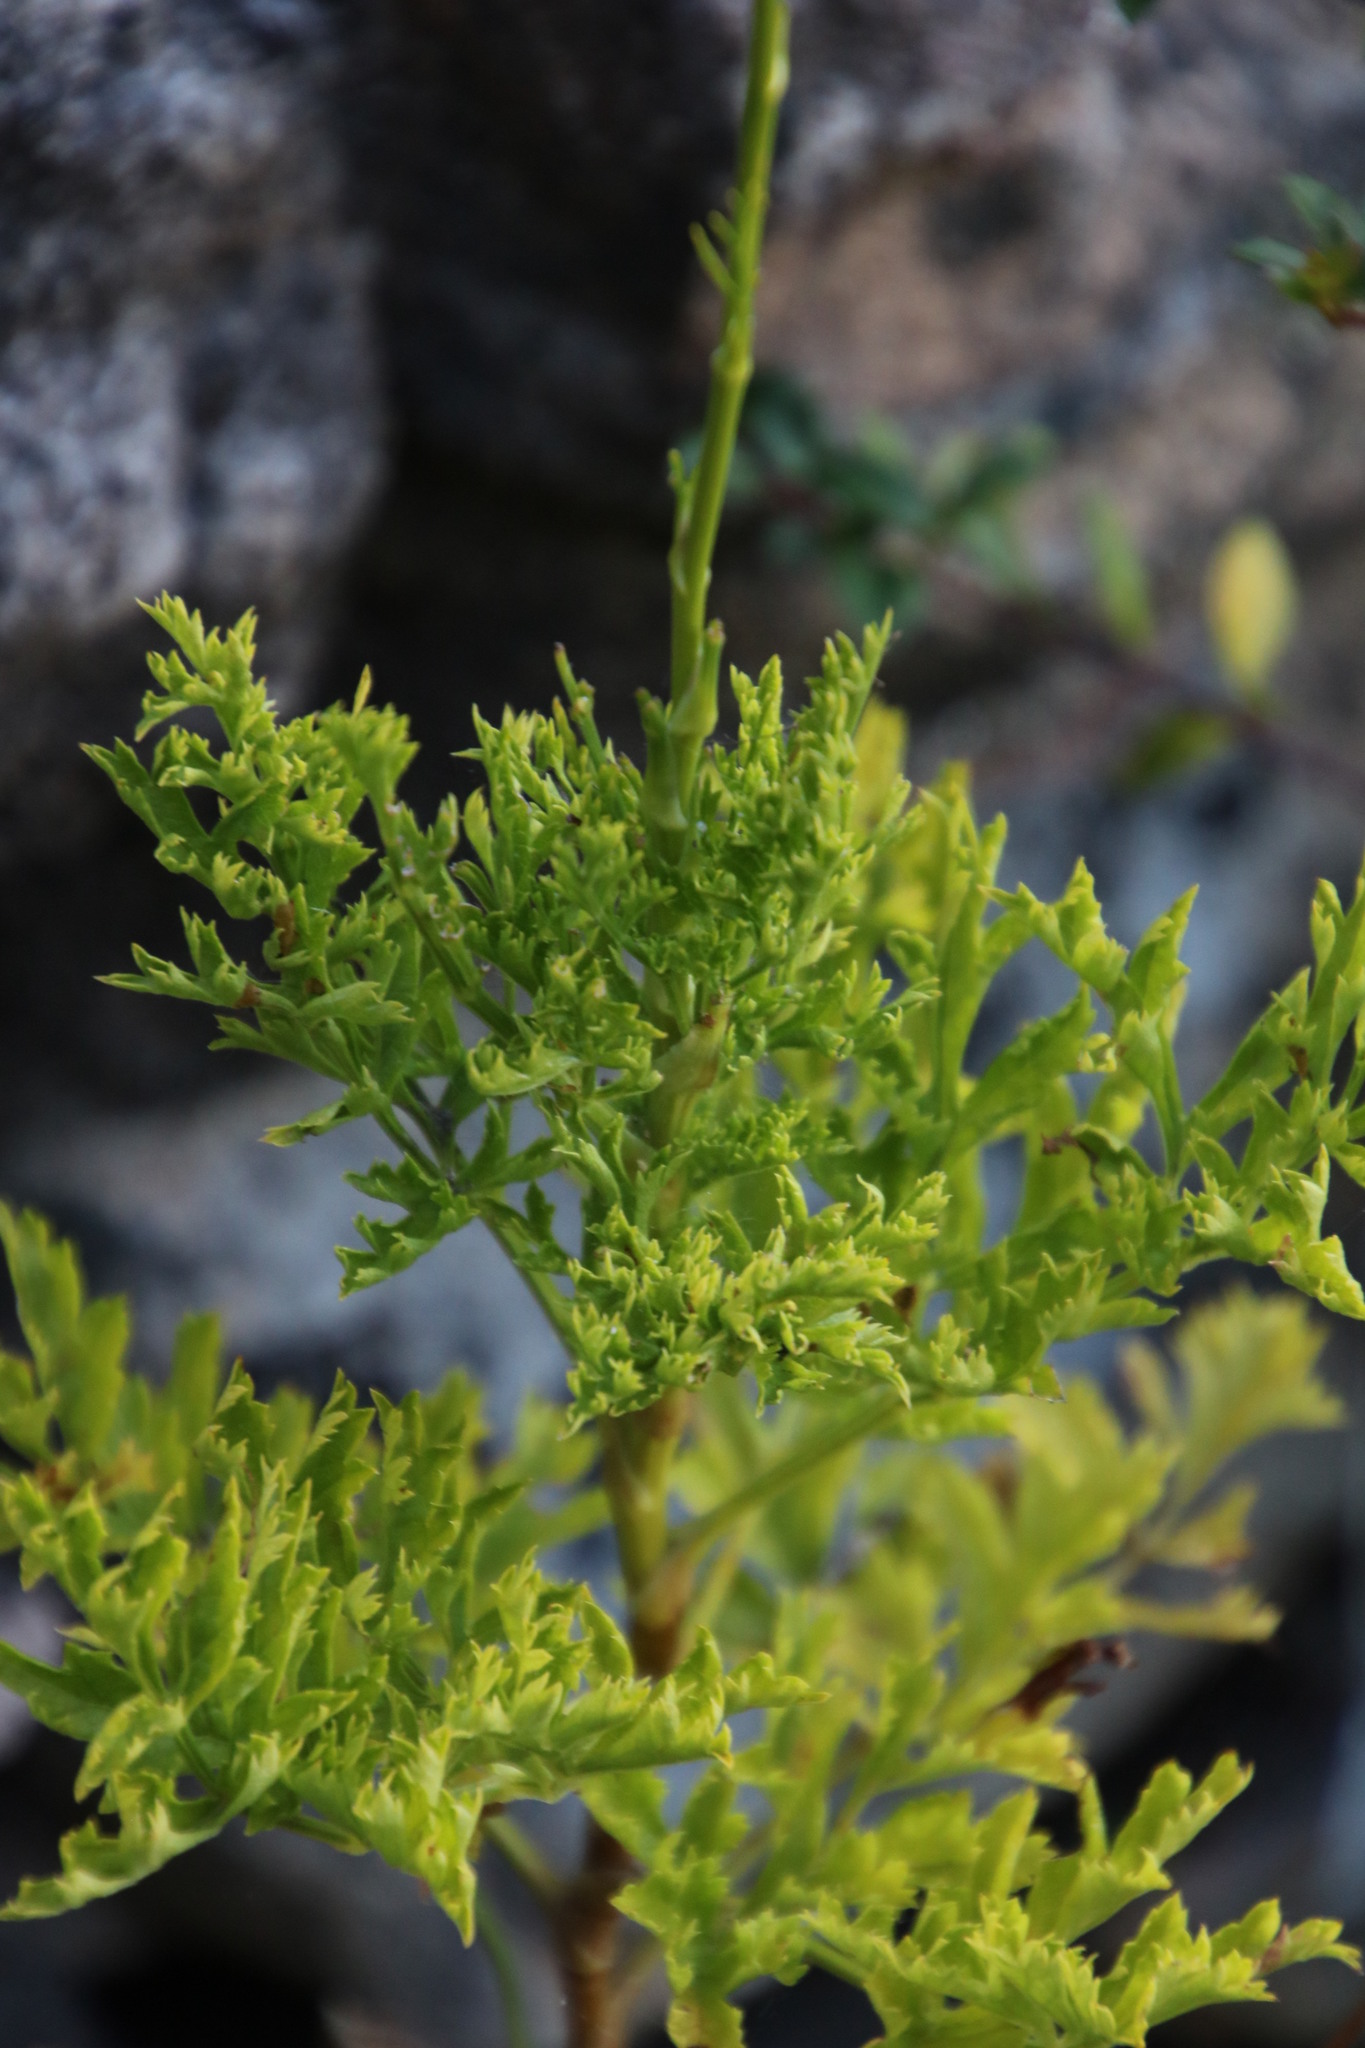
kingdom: Plantae
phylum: Tracheophyta
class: Magnoliopsida
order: Apiales
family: Apiaceae
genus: Glia
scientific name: Glia prolifera
